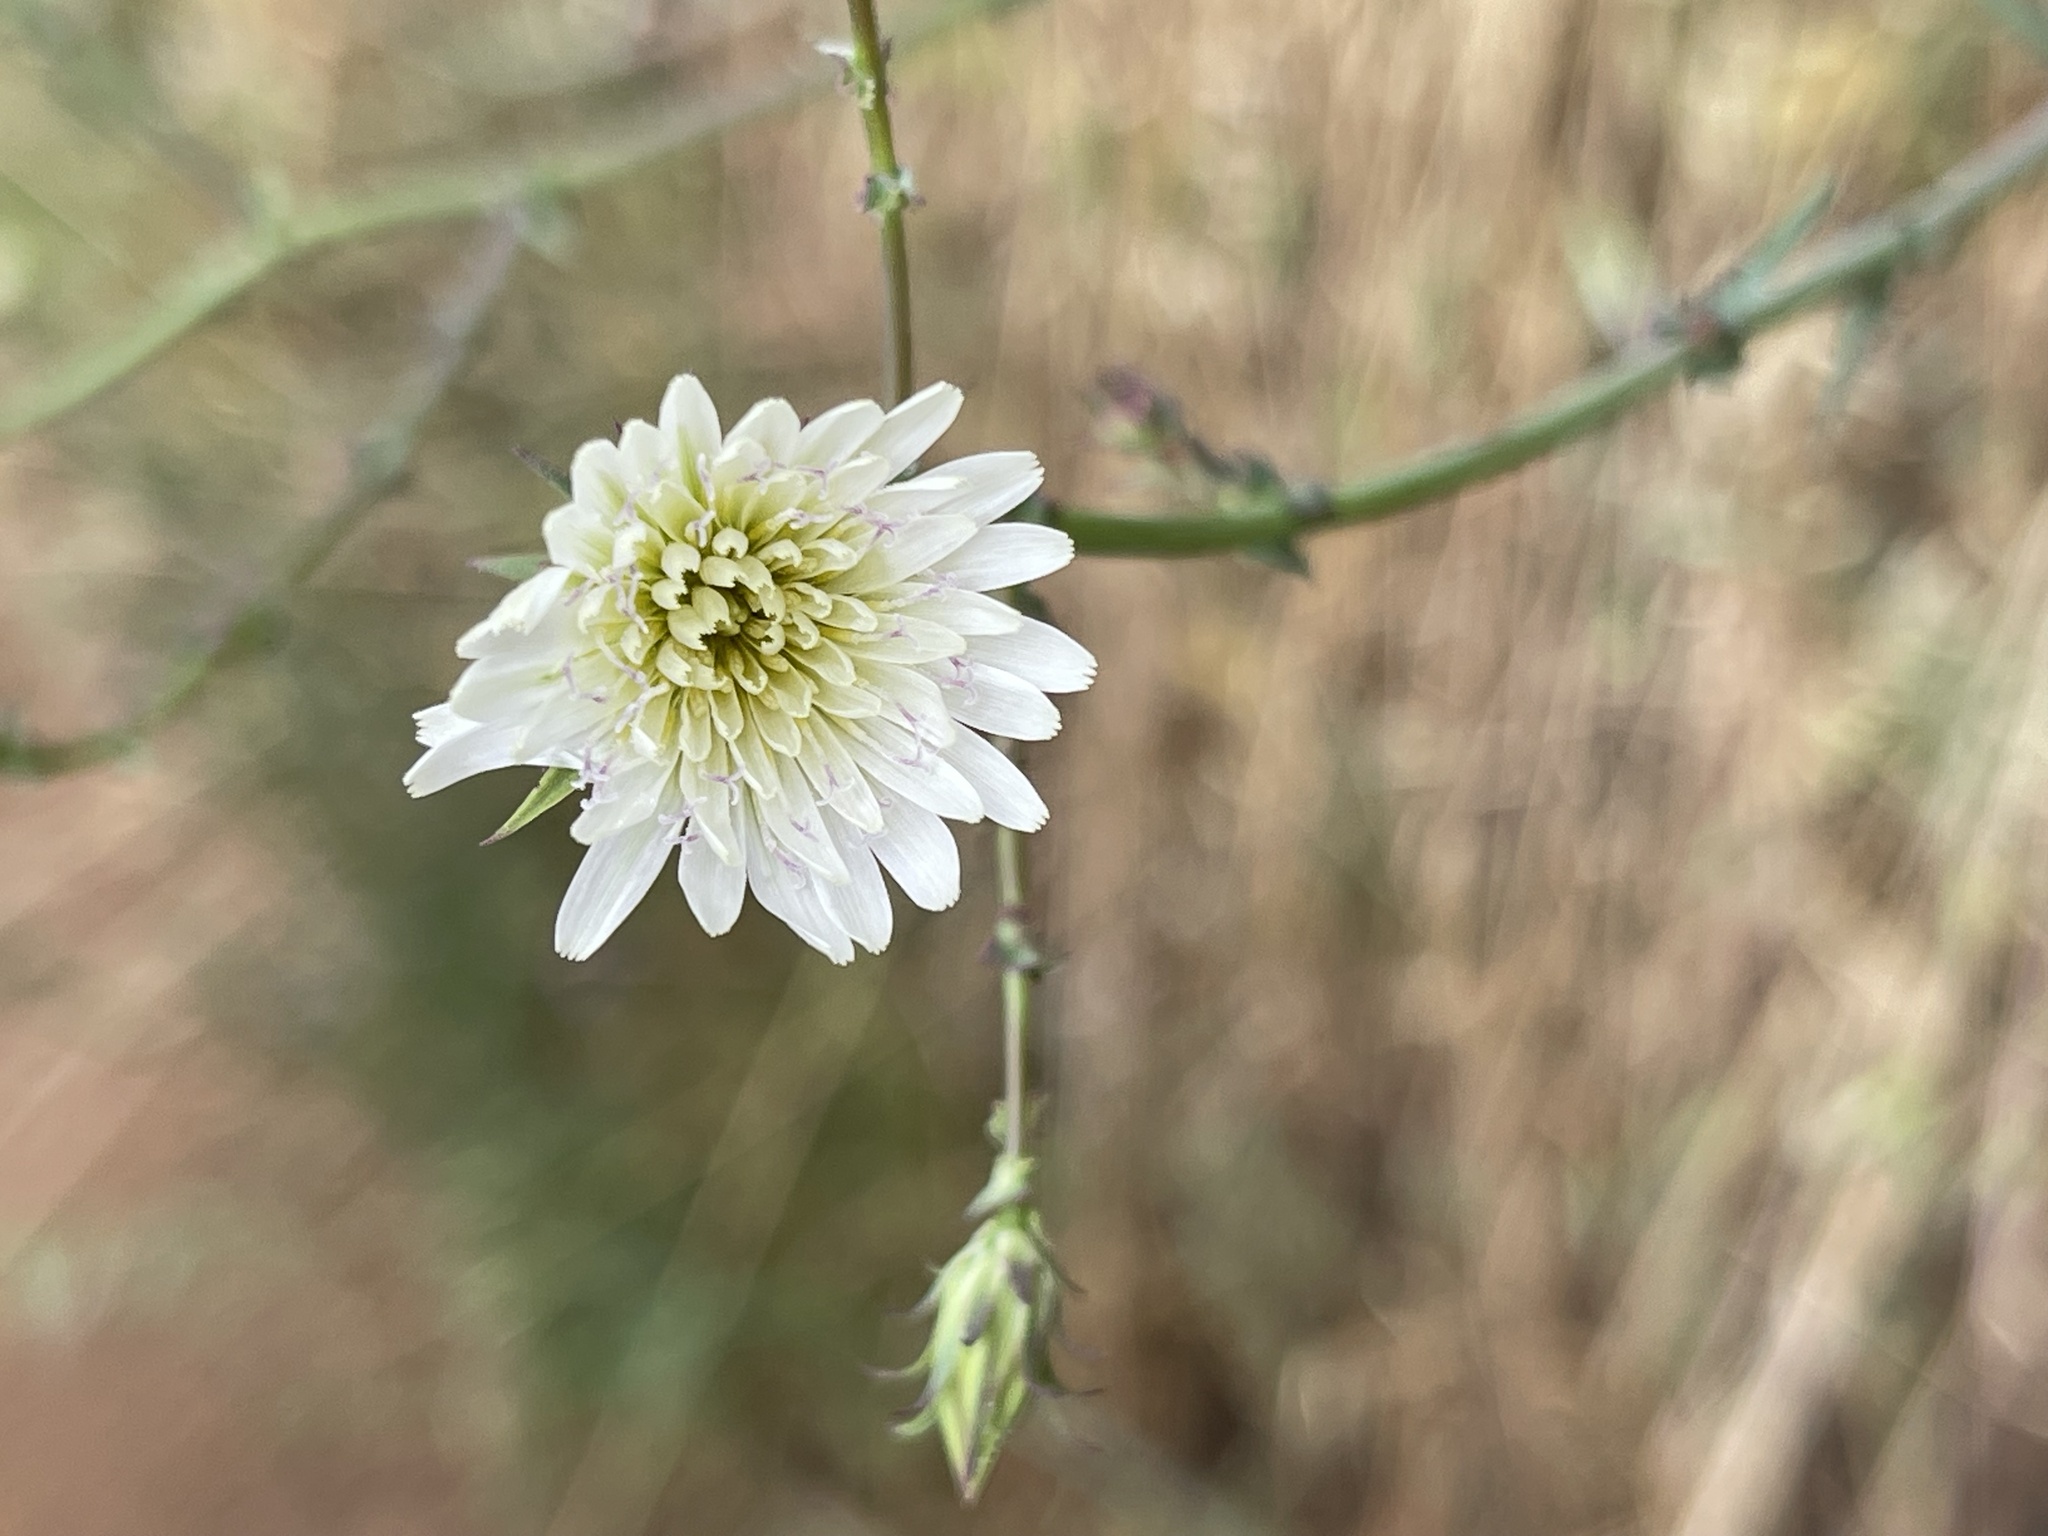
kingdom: Plantae
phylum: Tracheophyta
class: Magnoliopsida
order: Asterales
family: Asteraceae
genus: Rafinesquia
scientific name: Rafinesquia californica
